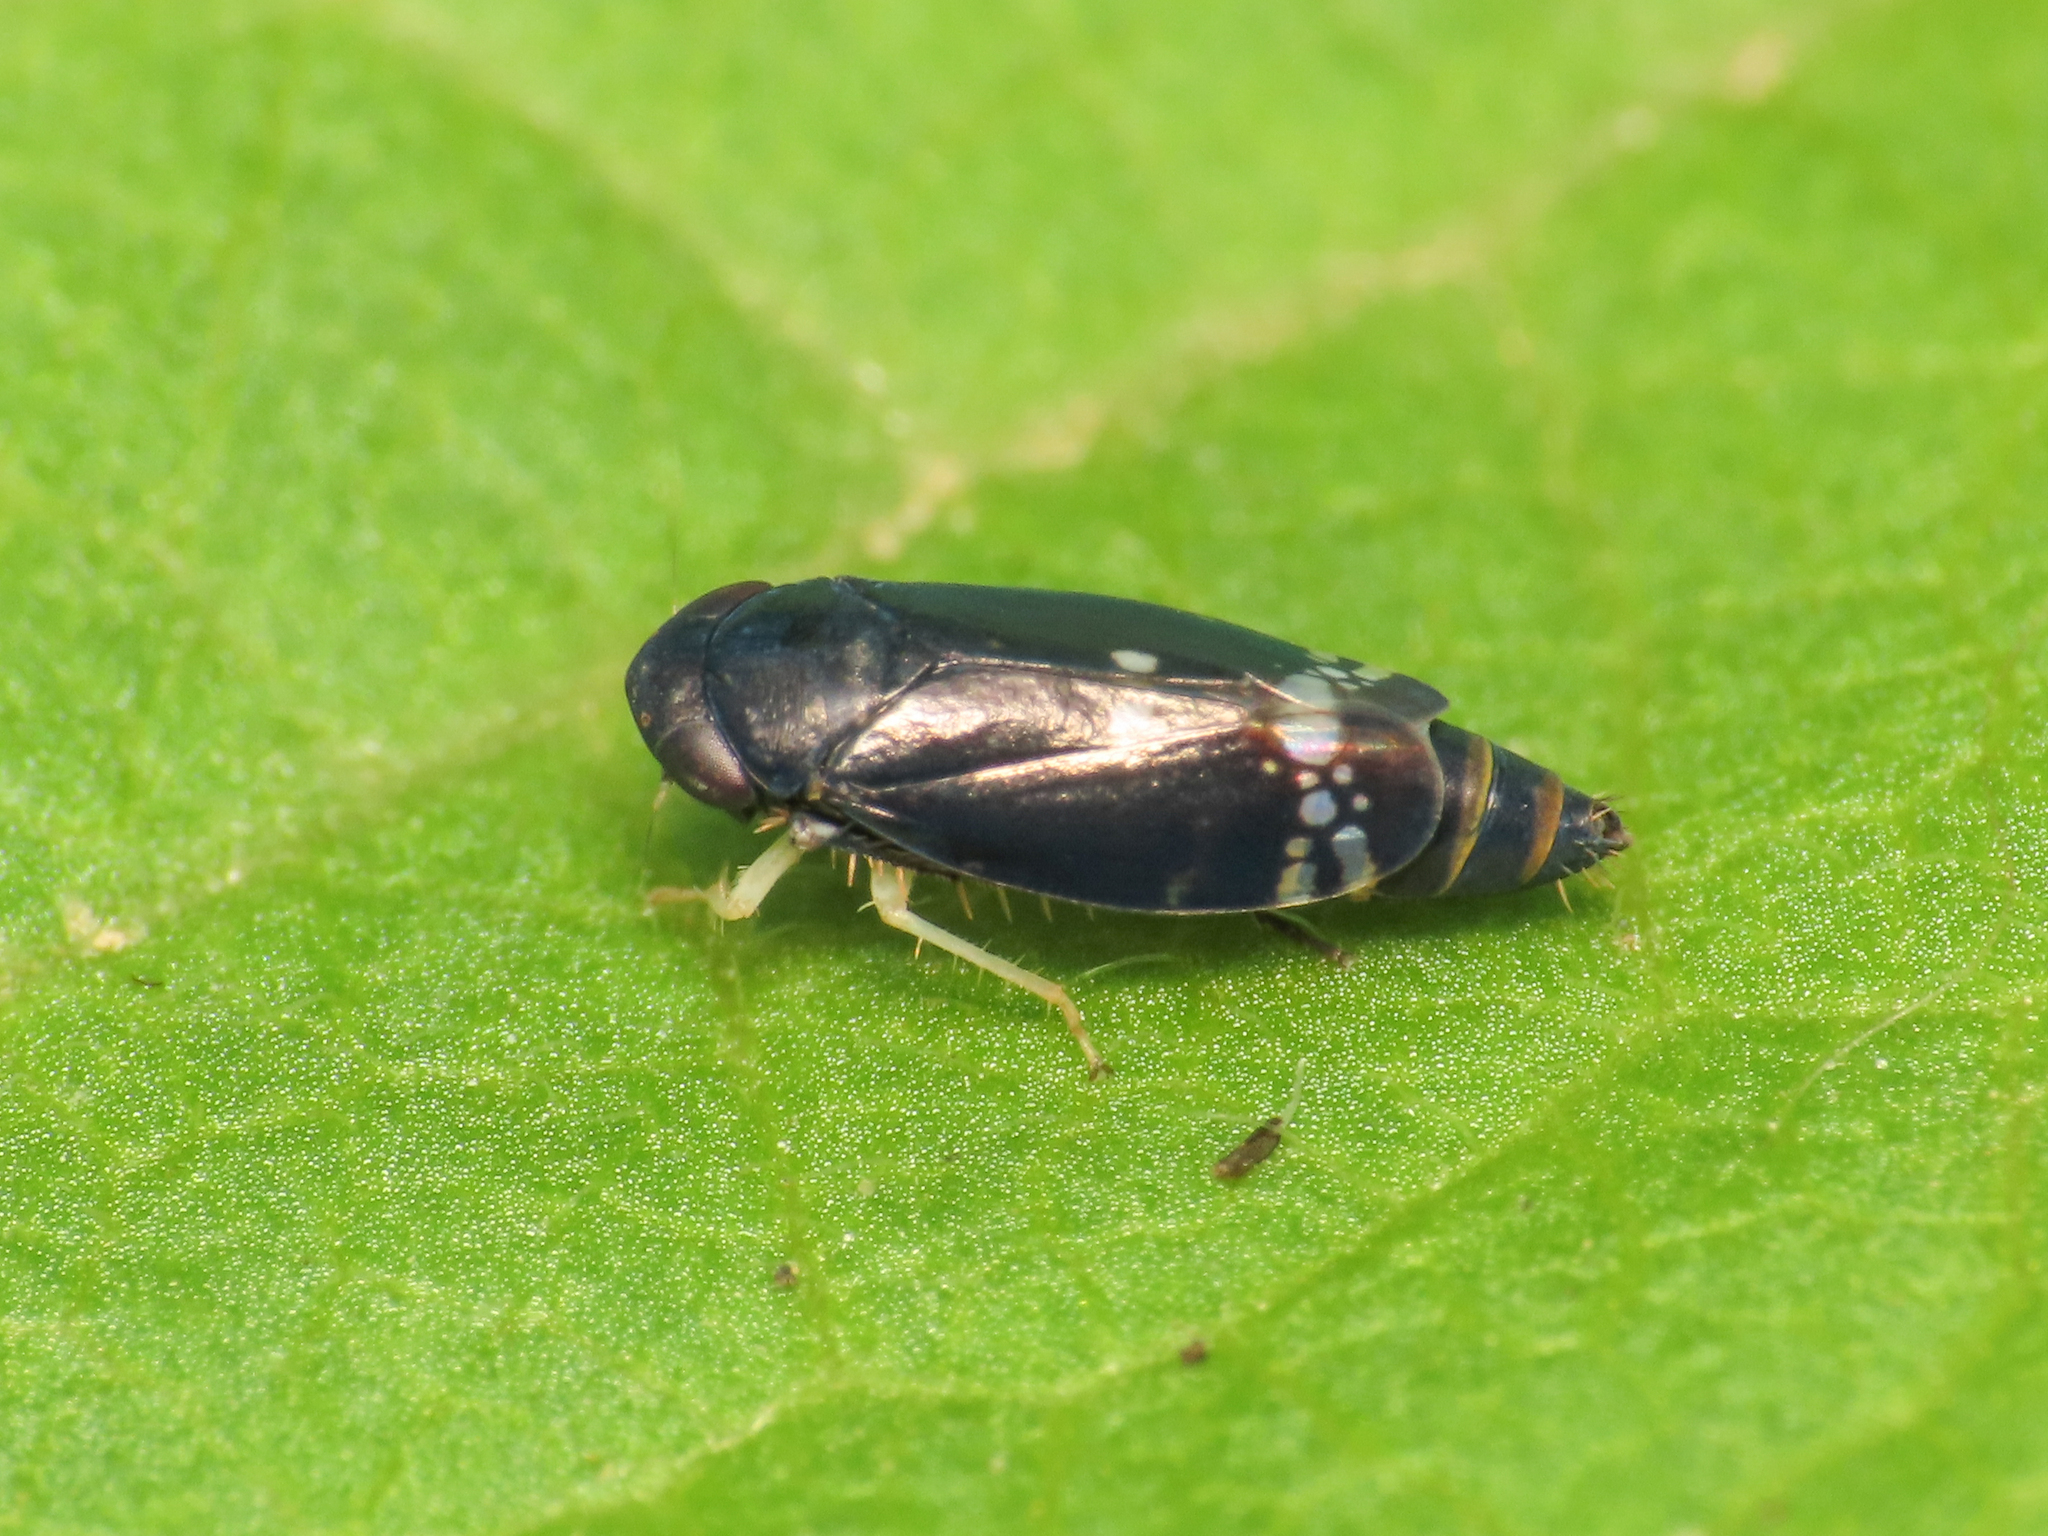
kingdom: Animalia
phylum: Arthropoda
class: Insecta
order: Hemiptera
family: Cicadellidae
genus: Neoaliturus
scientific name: Neoaliturus fenestratus
